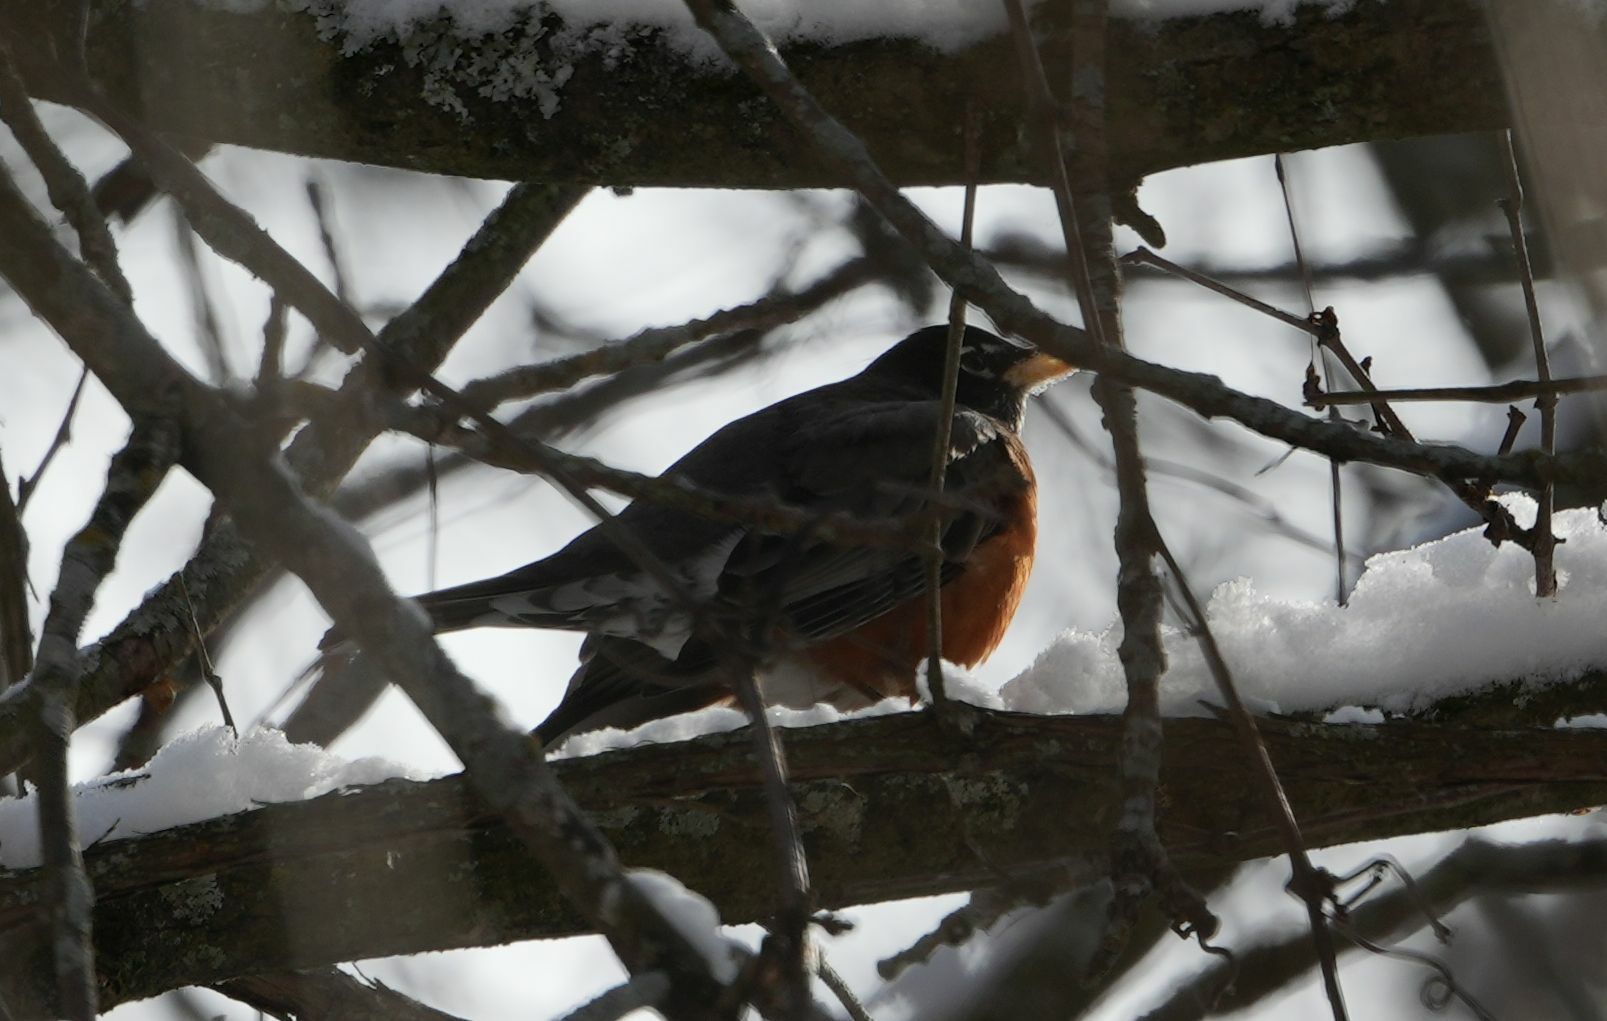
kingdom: Animalia
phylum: Chordata
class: Aves
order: Passeriformes
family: Turdidae
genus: Turdus
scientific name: Turdus migratorius
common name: American robin
